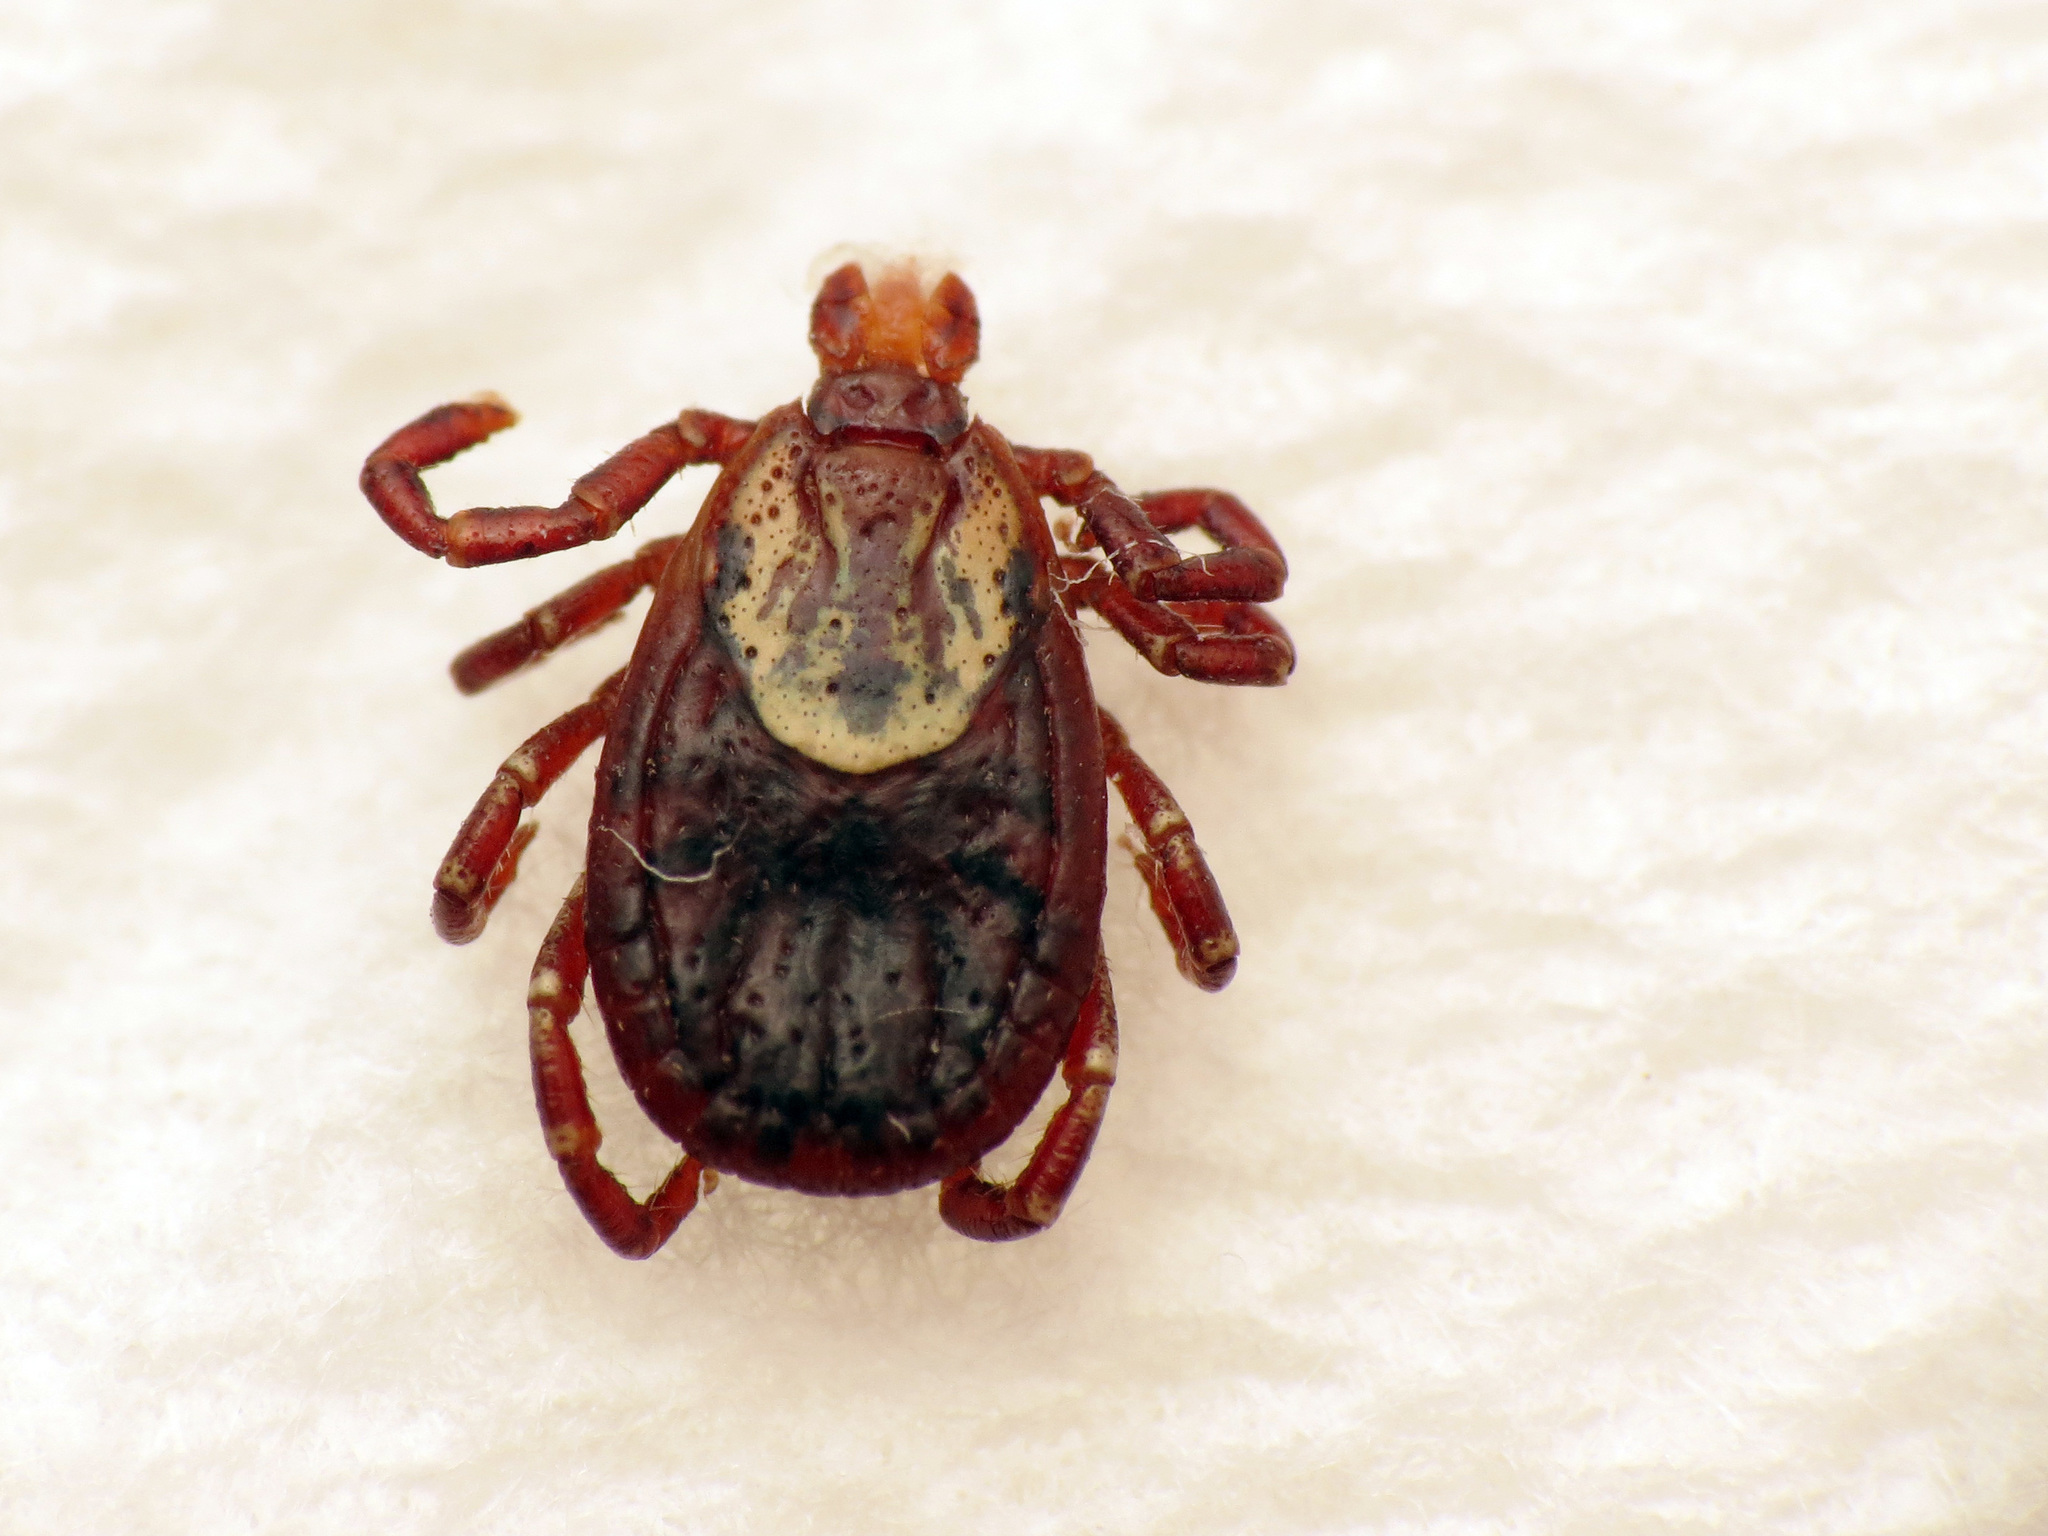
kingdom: Animalia
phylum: Arthropoda
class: Arachnida
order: Ixodida
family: Ixodidae
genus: Dermacentor
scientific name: Dermacentor variabilis
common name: American dog tick
